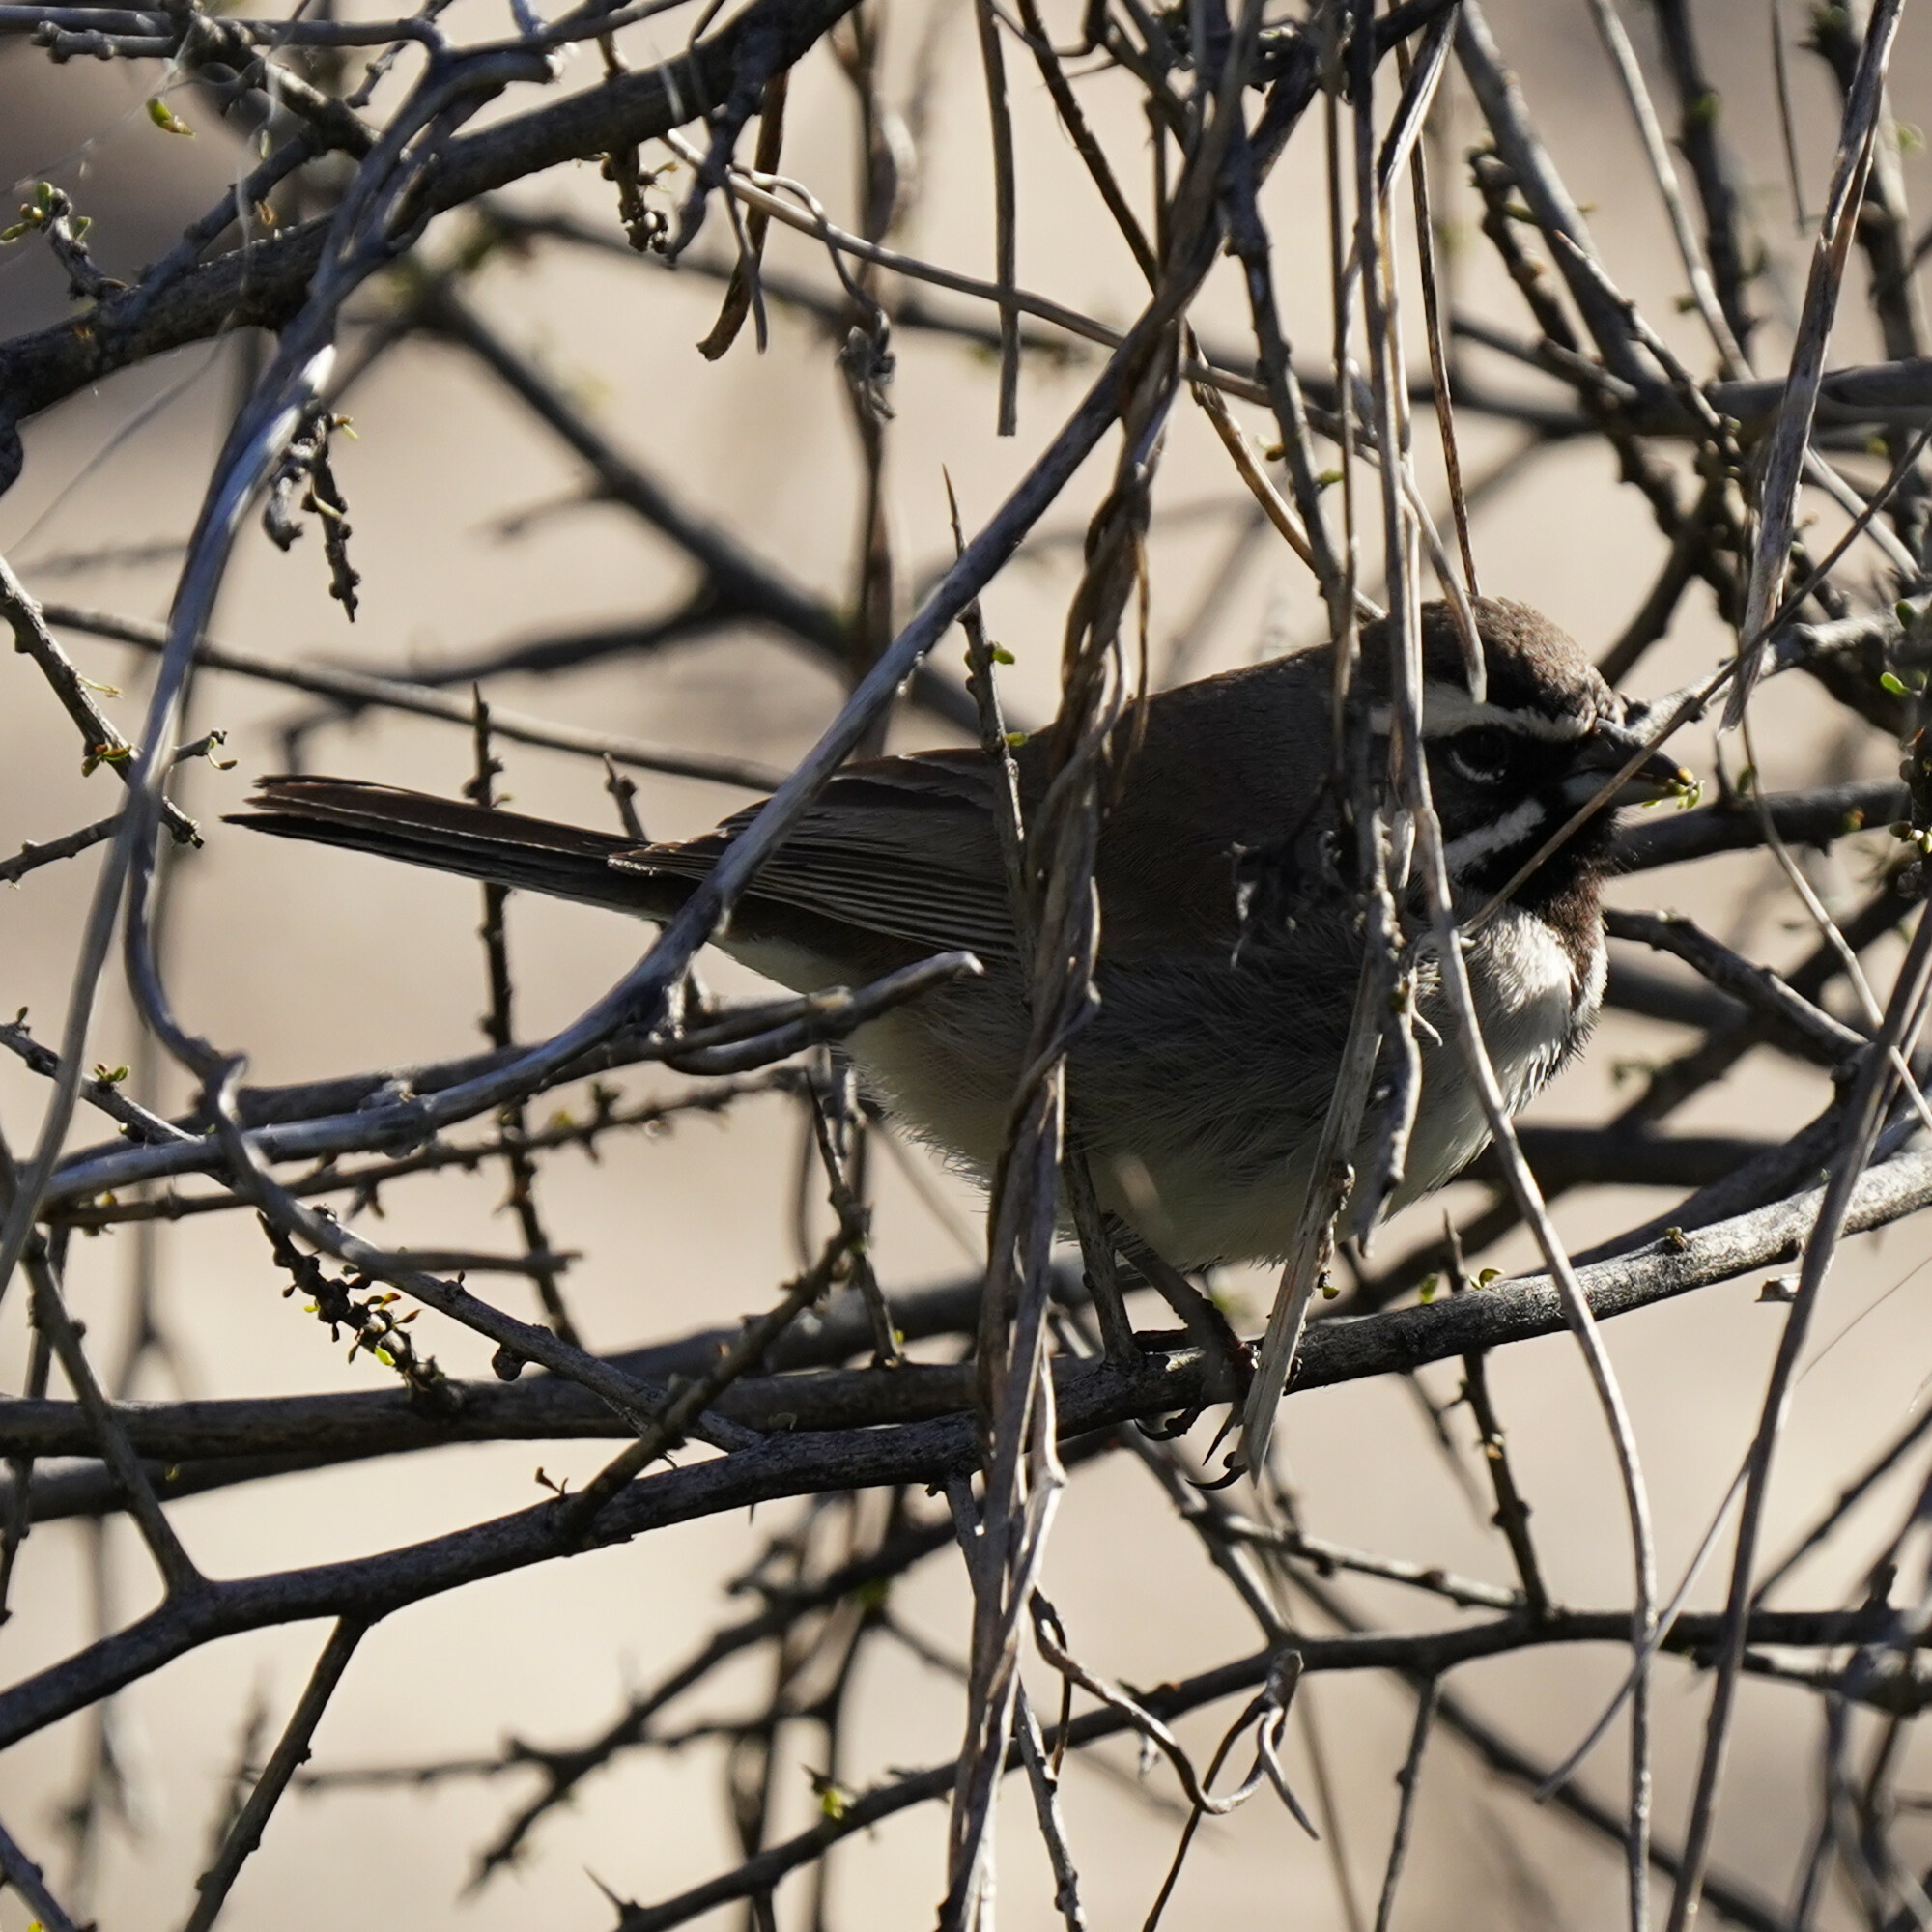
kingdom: Animalia
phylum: Chordata
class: Aves
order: Passeriformes
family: Passerellidae
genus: Amphispiza
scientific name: Amphispiza bilineata
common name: Black-throated sparrow
